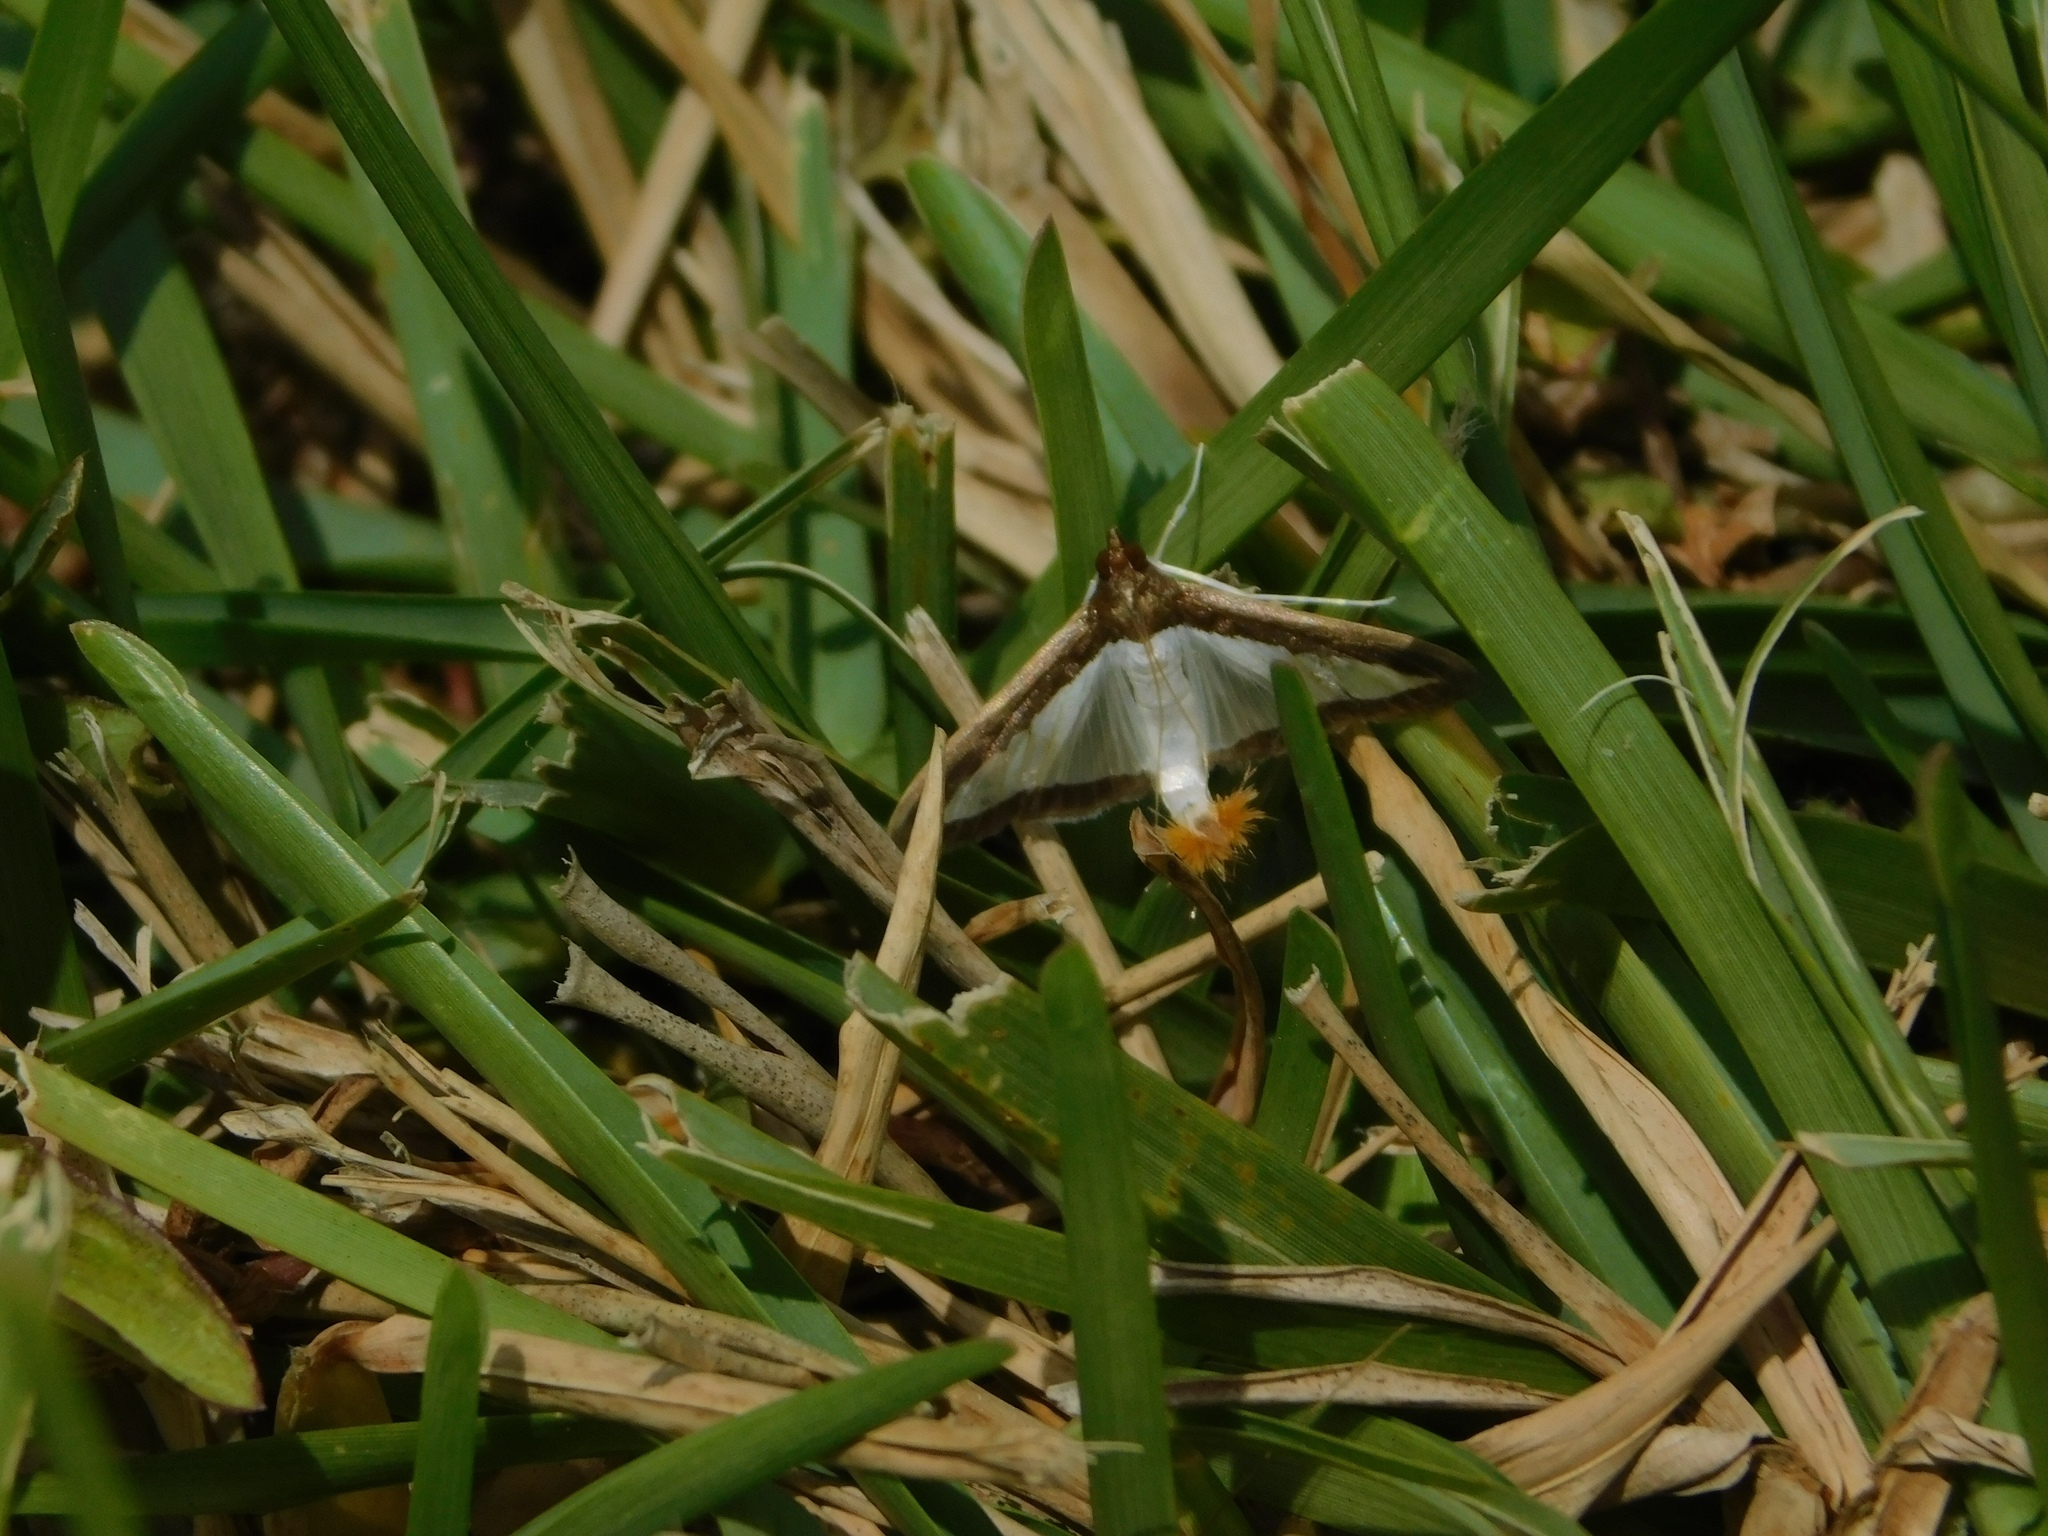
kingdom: Animalia
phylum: Arthropoda
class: Insecta
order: Lepidoptera
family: Crambidae
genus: Diaphania
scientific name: Diaphania hyalinata
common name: Melonworm
